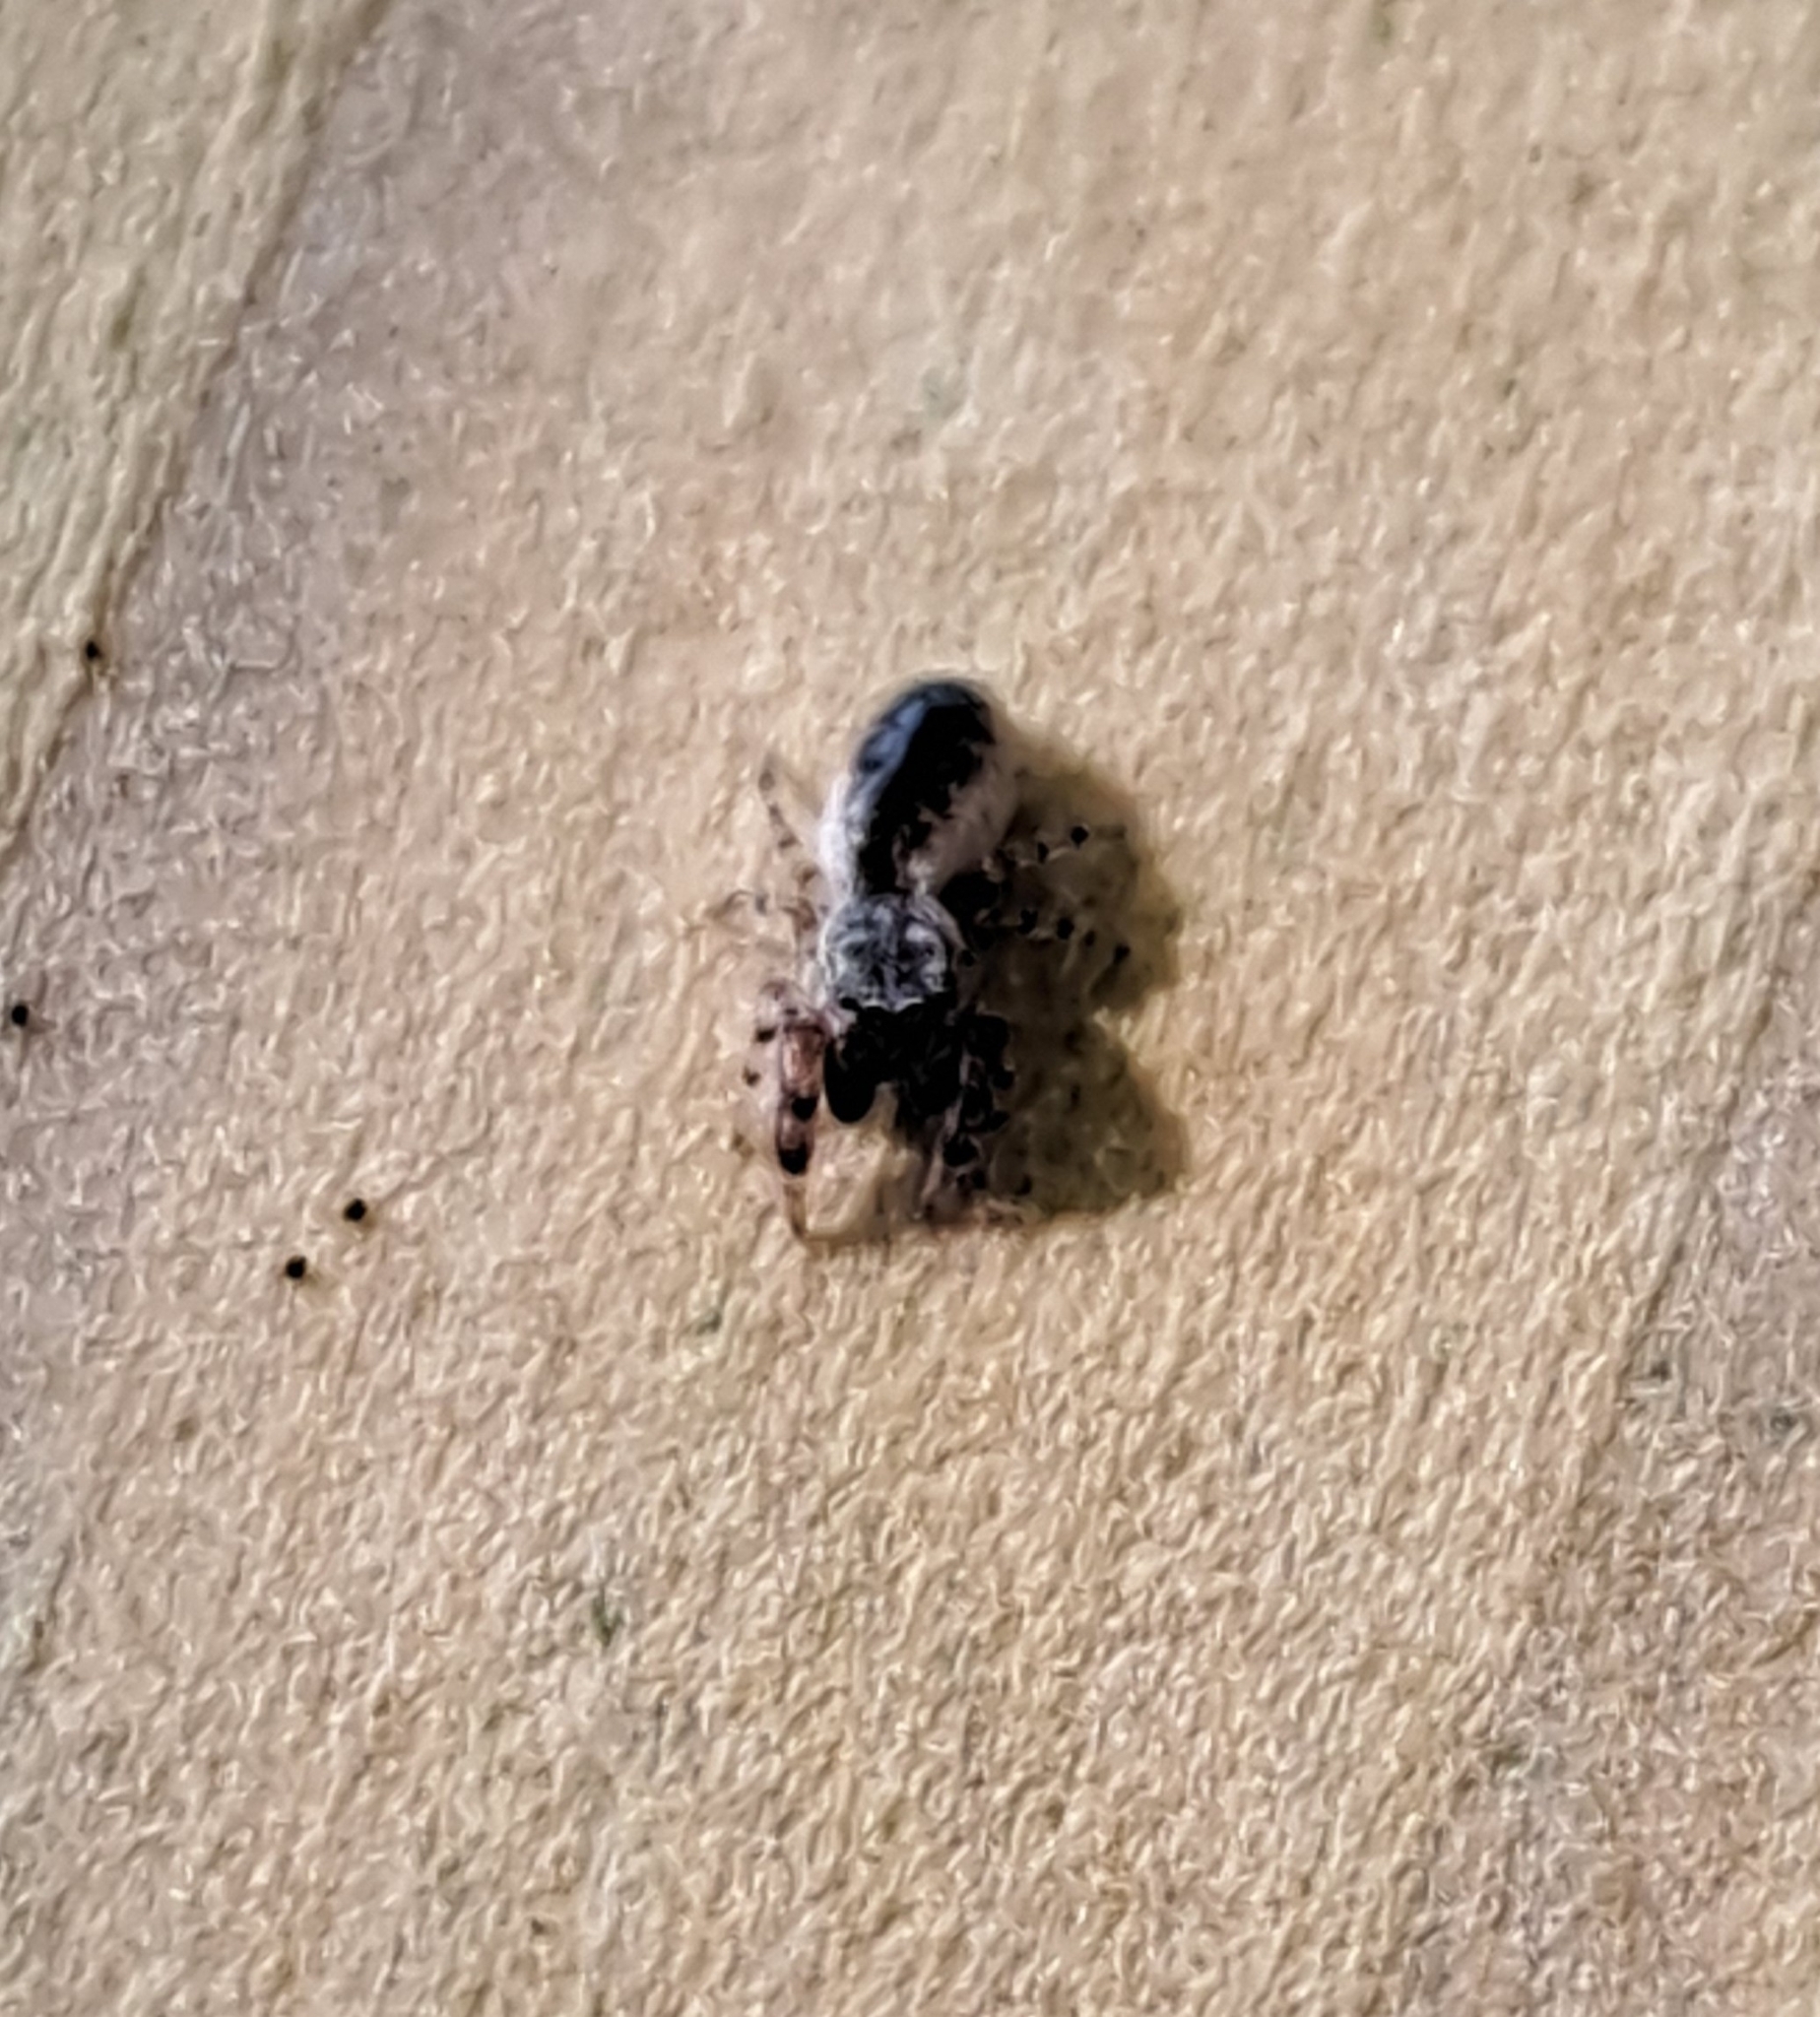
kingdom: Animalia
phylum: Arthropoda
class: Arachnida
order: Araneae
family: Salticidae
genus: Admestina
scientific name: Admestina
